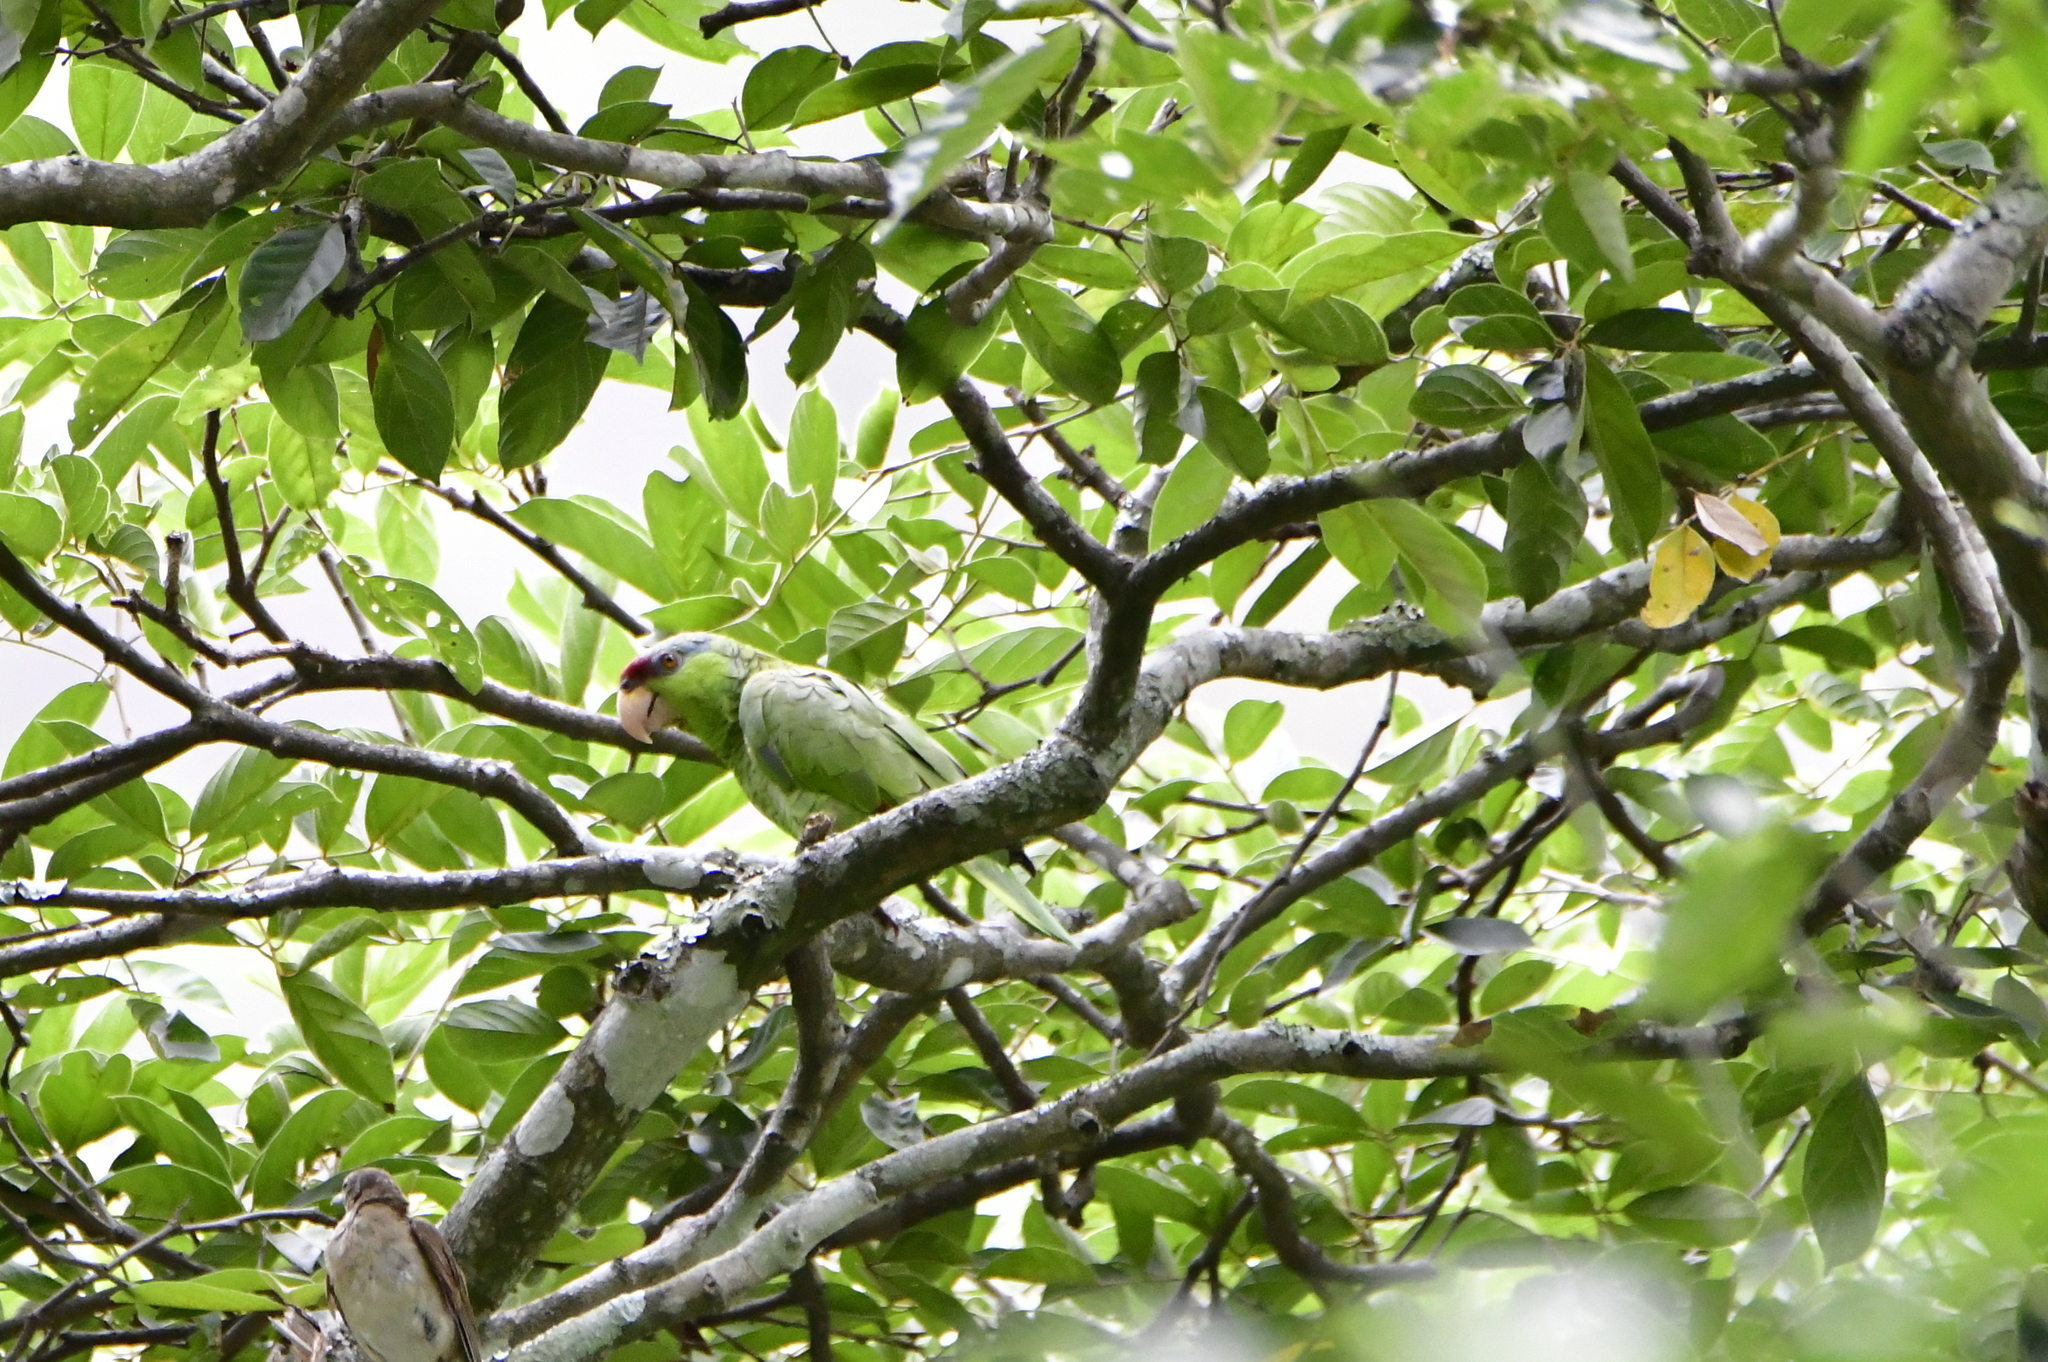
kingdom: Animalia
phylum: Chordata
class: Aves
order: Psittaciformes
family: Psittacidae
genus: Amazona
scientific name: Amazona finschi
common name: Lilac-crowned amazon
